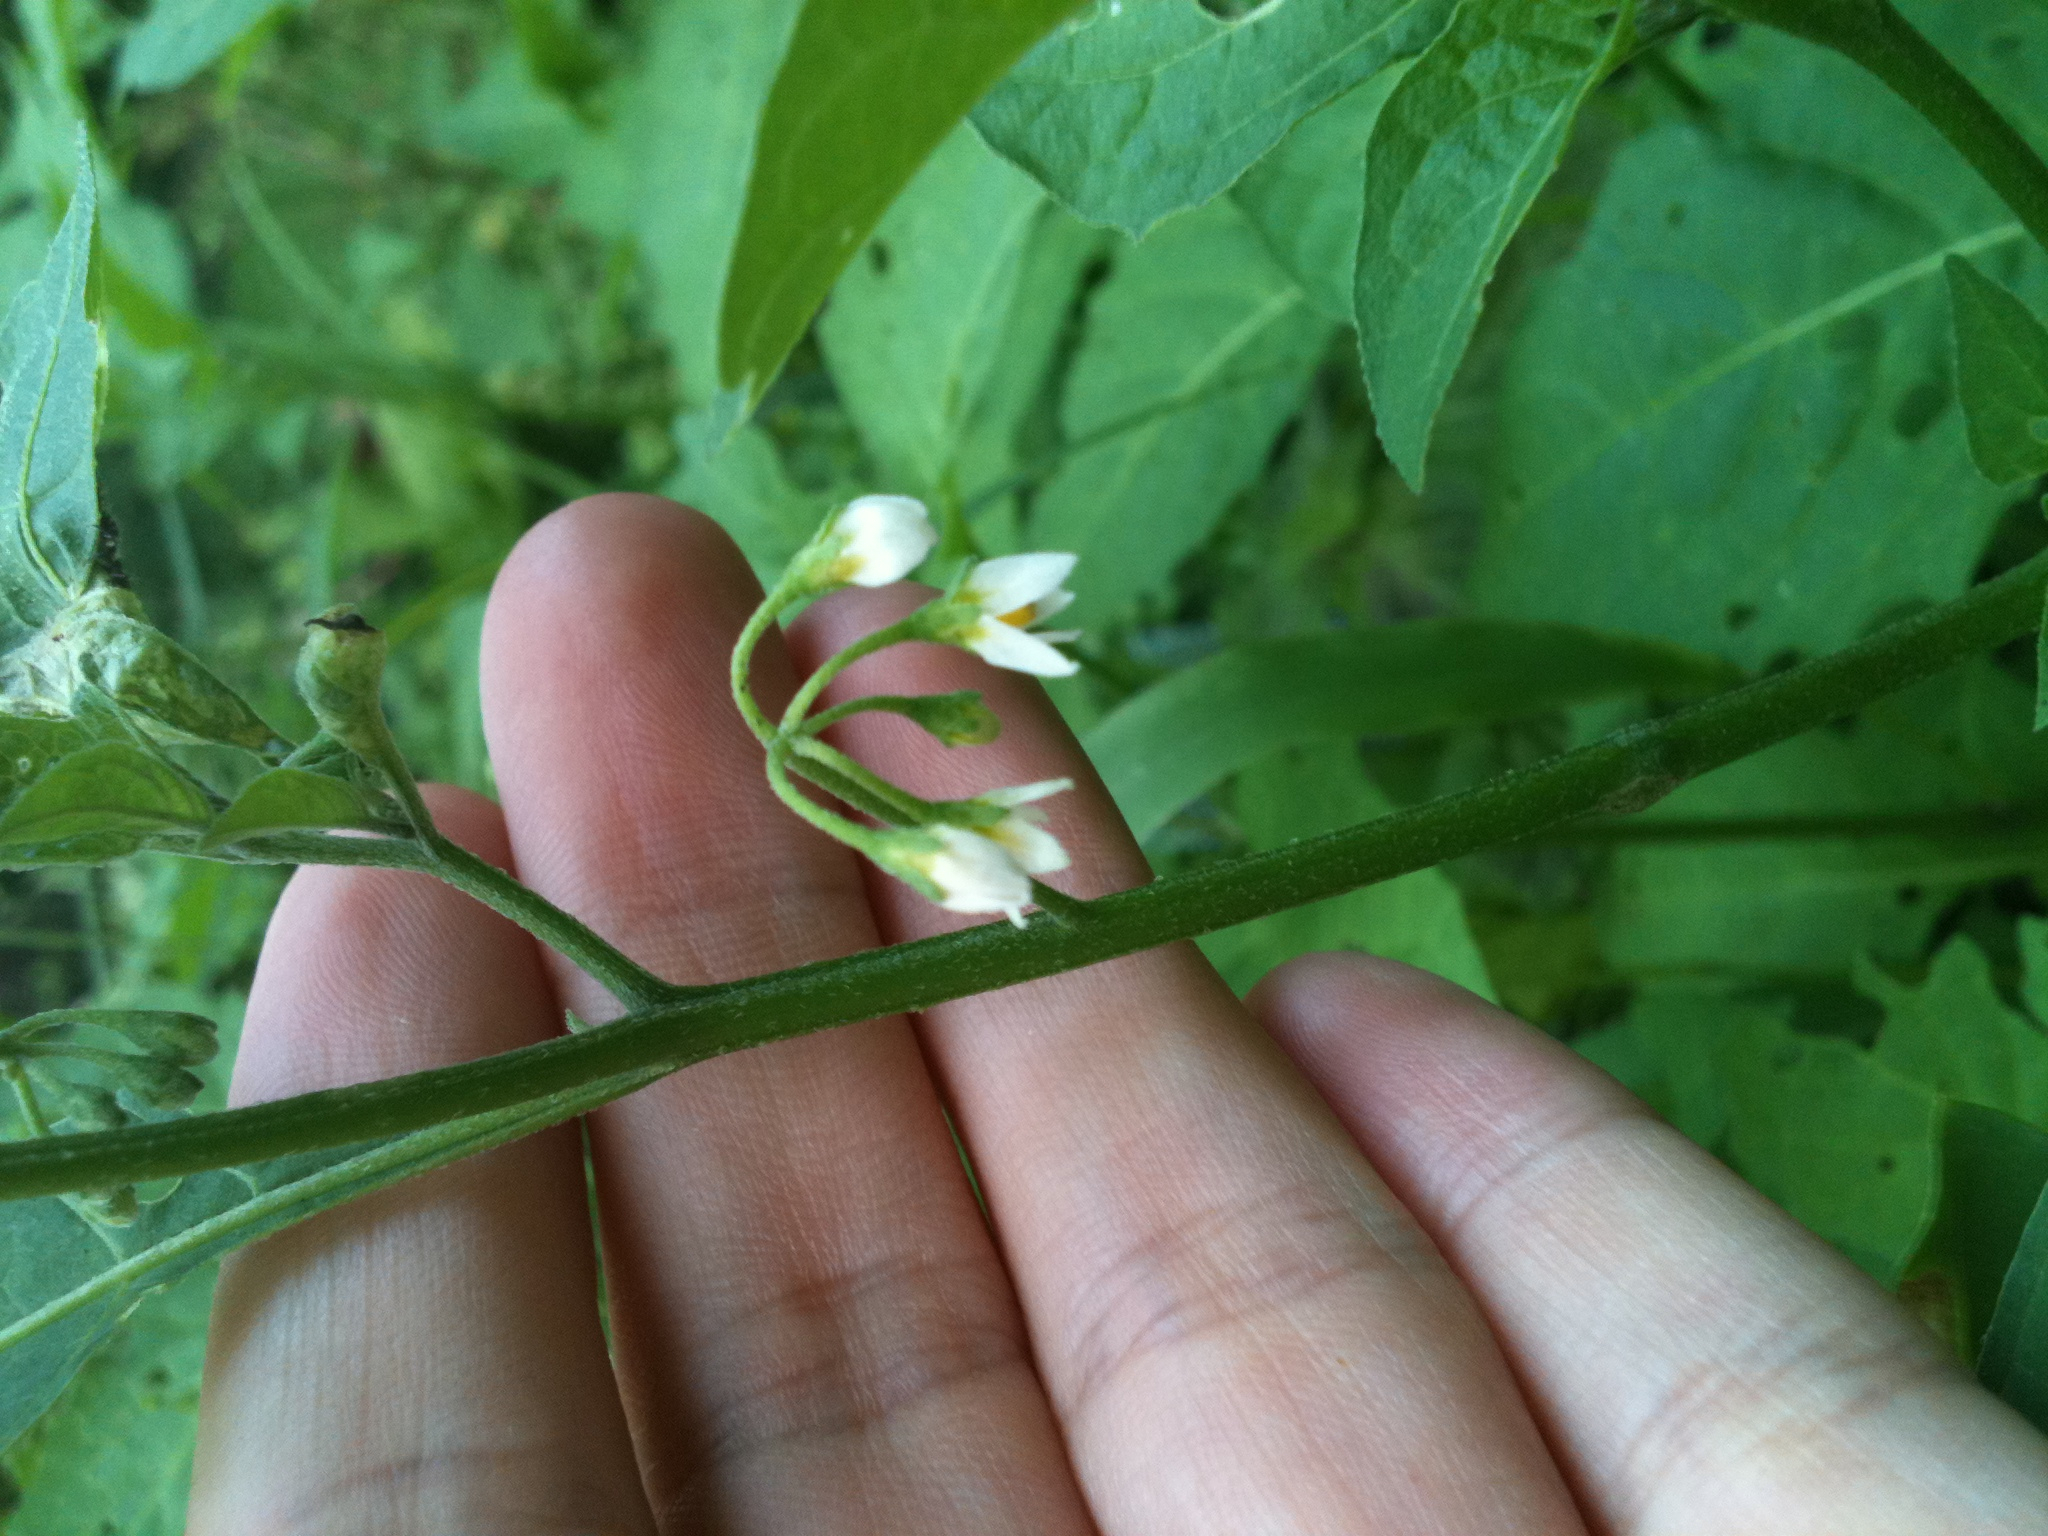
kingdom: Plantae
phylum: Tracheophyta
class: Magnoliopsida
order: Solanales
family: Solanaceae
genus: Solanum
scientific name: Solanum emulans
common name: Eastern black nightshade
